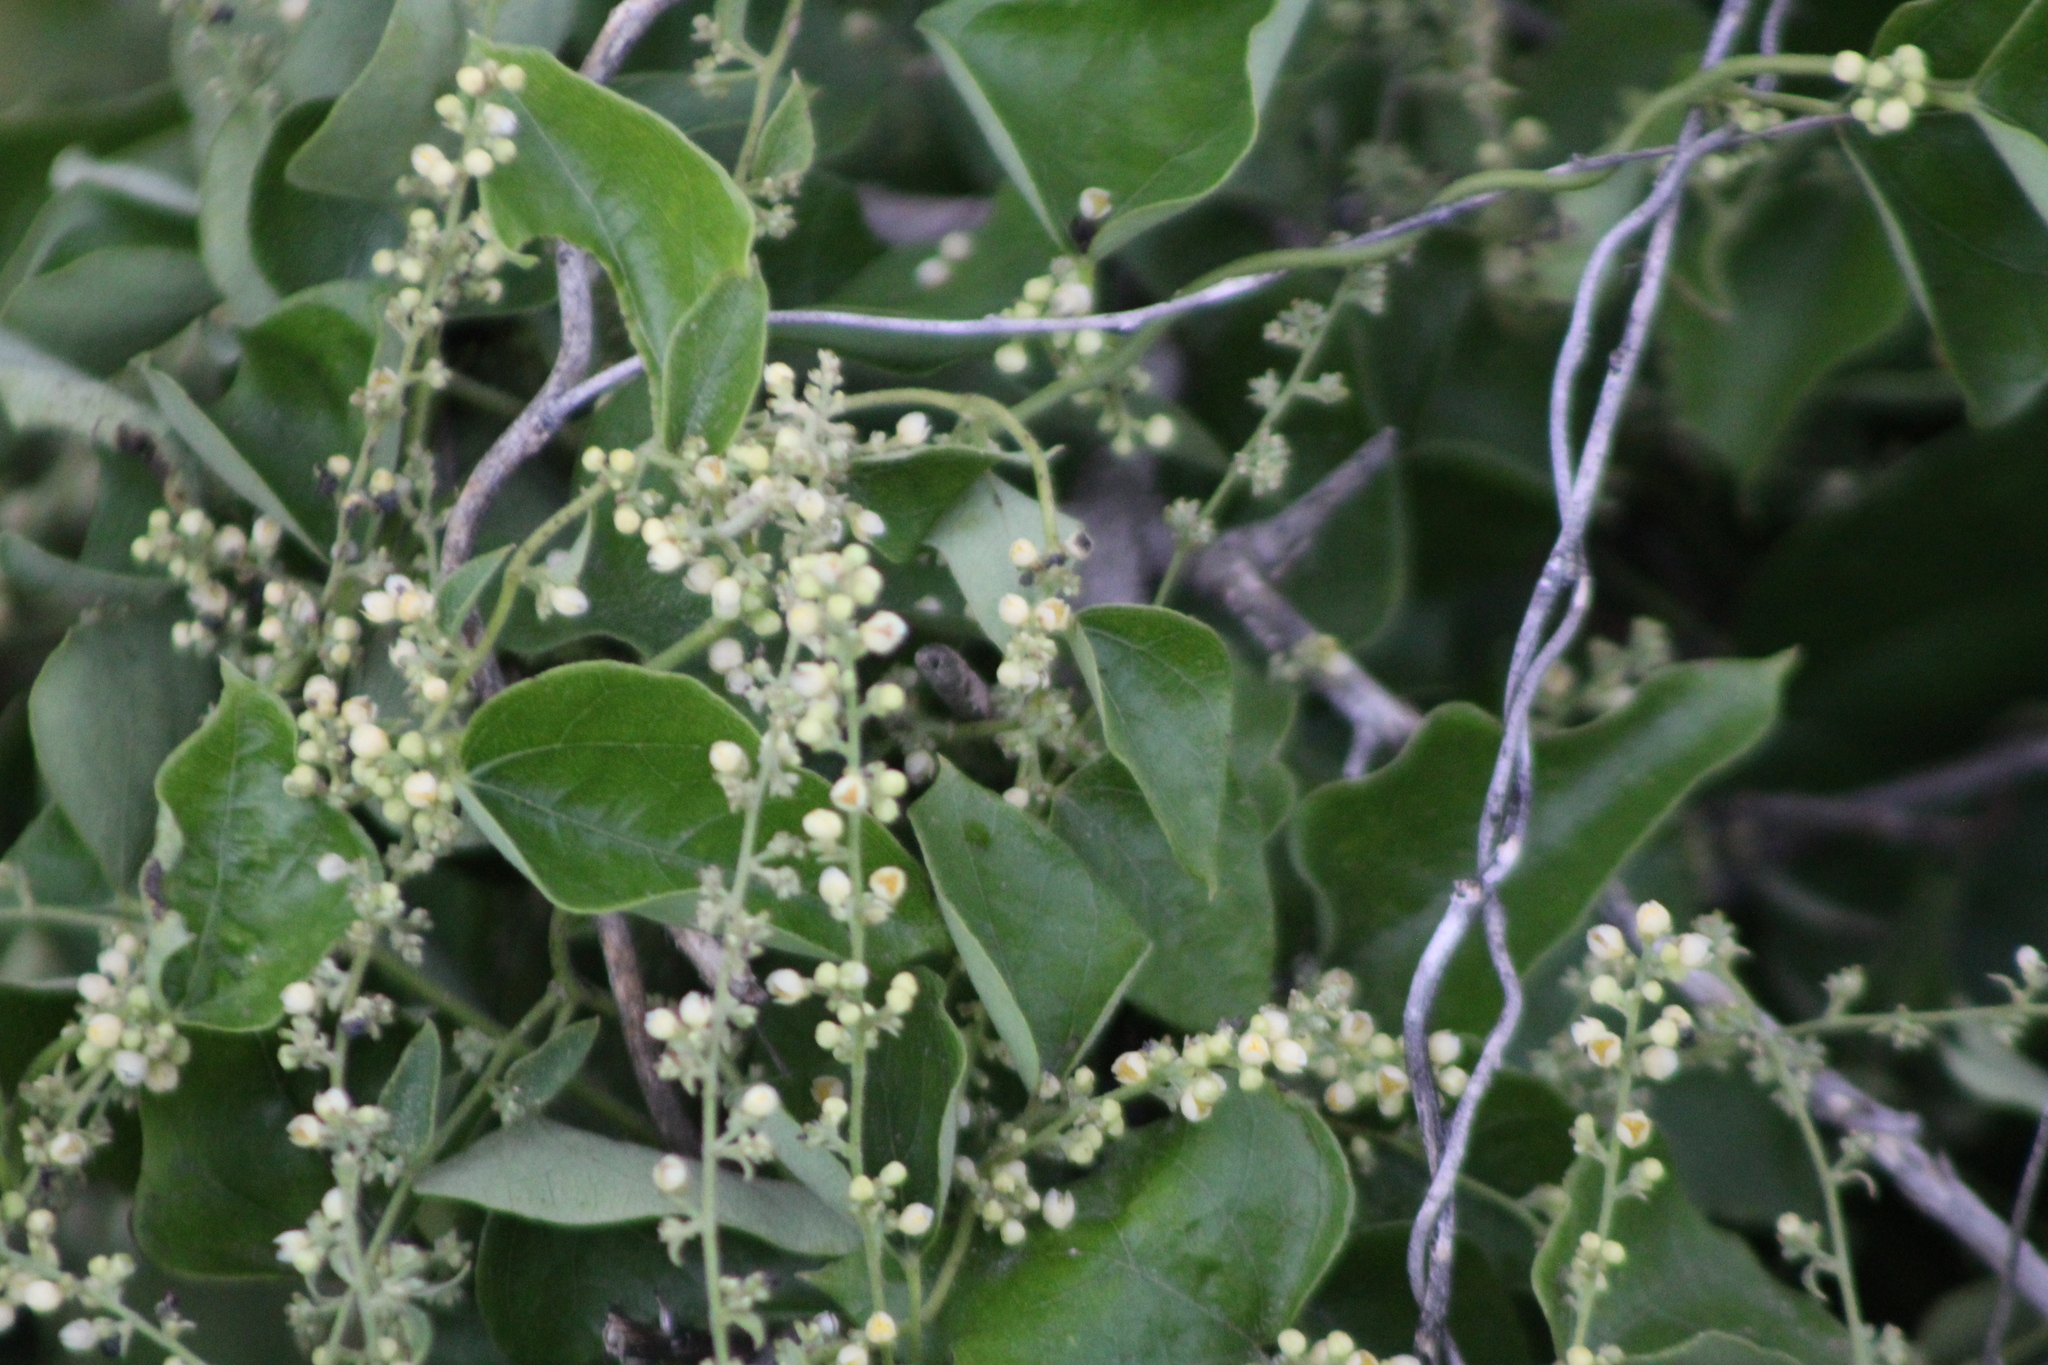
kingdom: Plantae
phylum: Tracheophyta
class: Magnoliopsida
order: Ranunculales
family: Menispermaceae
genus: Cocculus
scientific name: Cocculus carolinus
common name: Carolina moonseed
